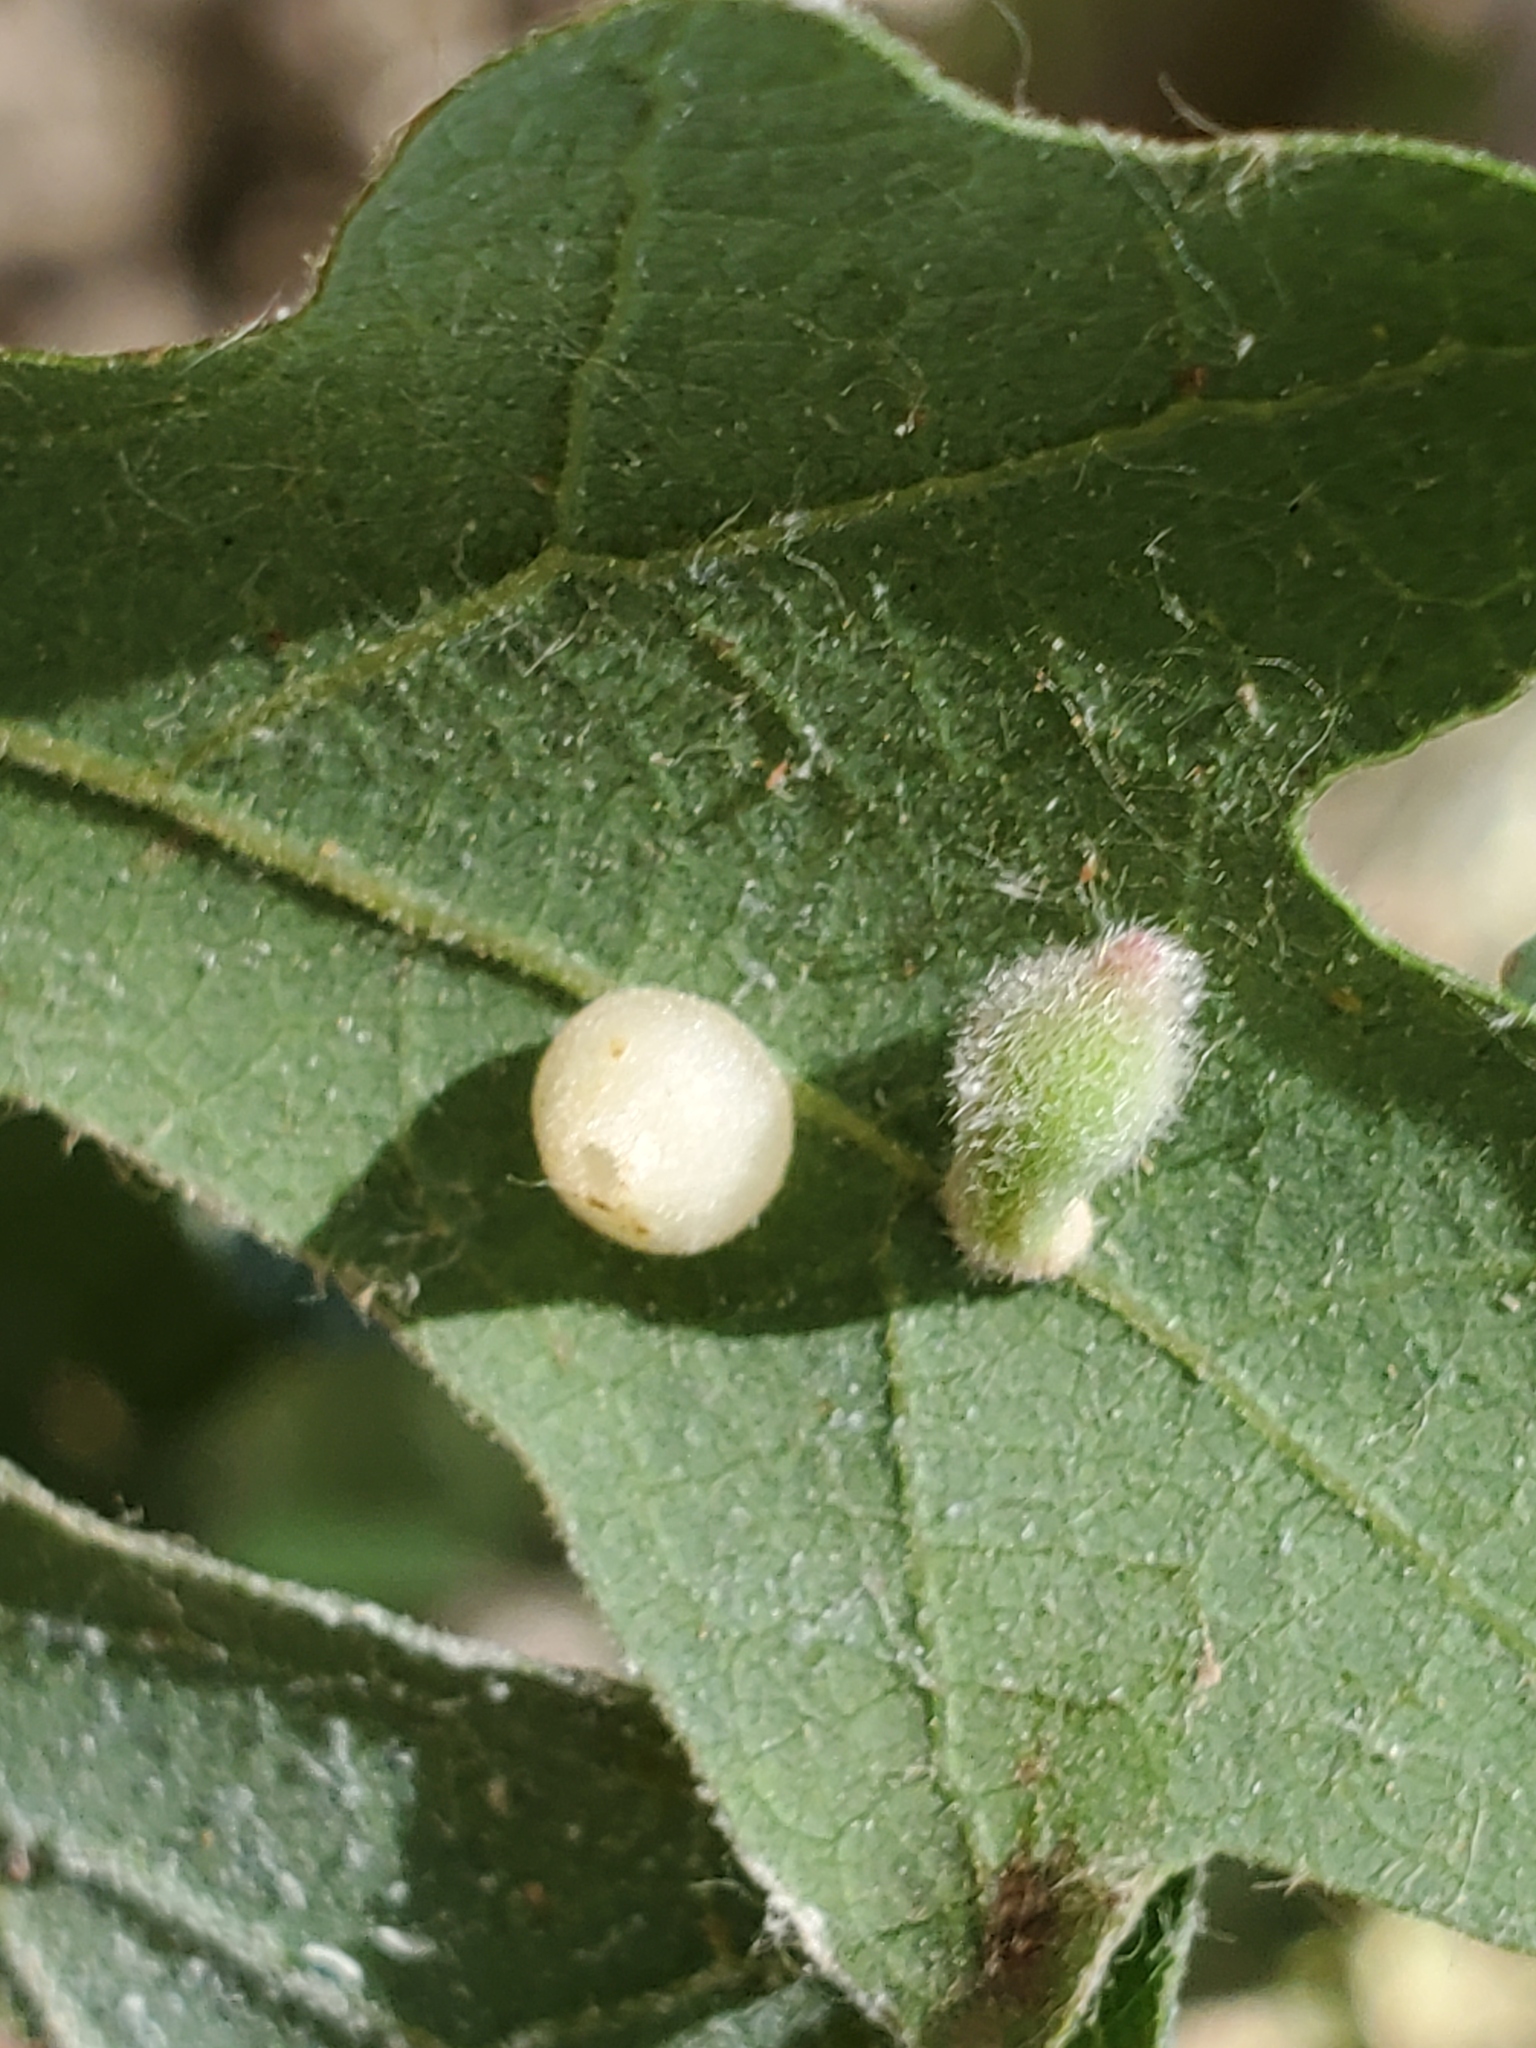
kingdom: Animalia
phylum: Arthropoda
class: Insecta
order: Hymenoptera
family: Cynipidae
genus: Atrusca
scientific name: Atrusca
